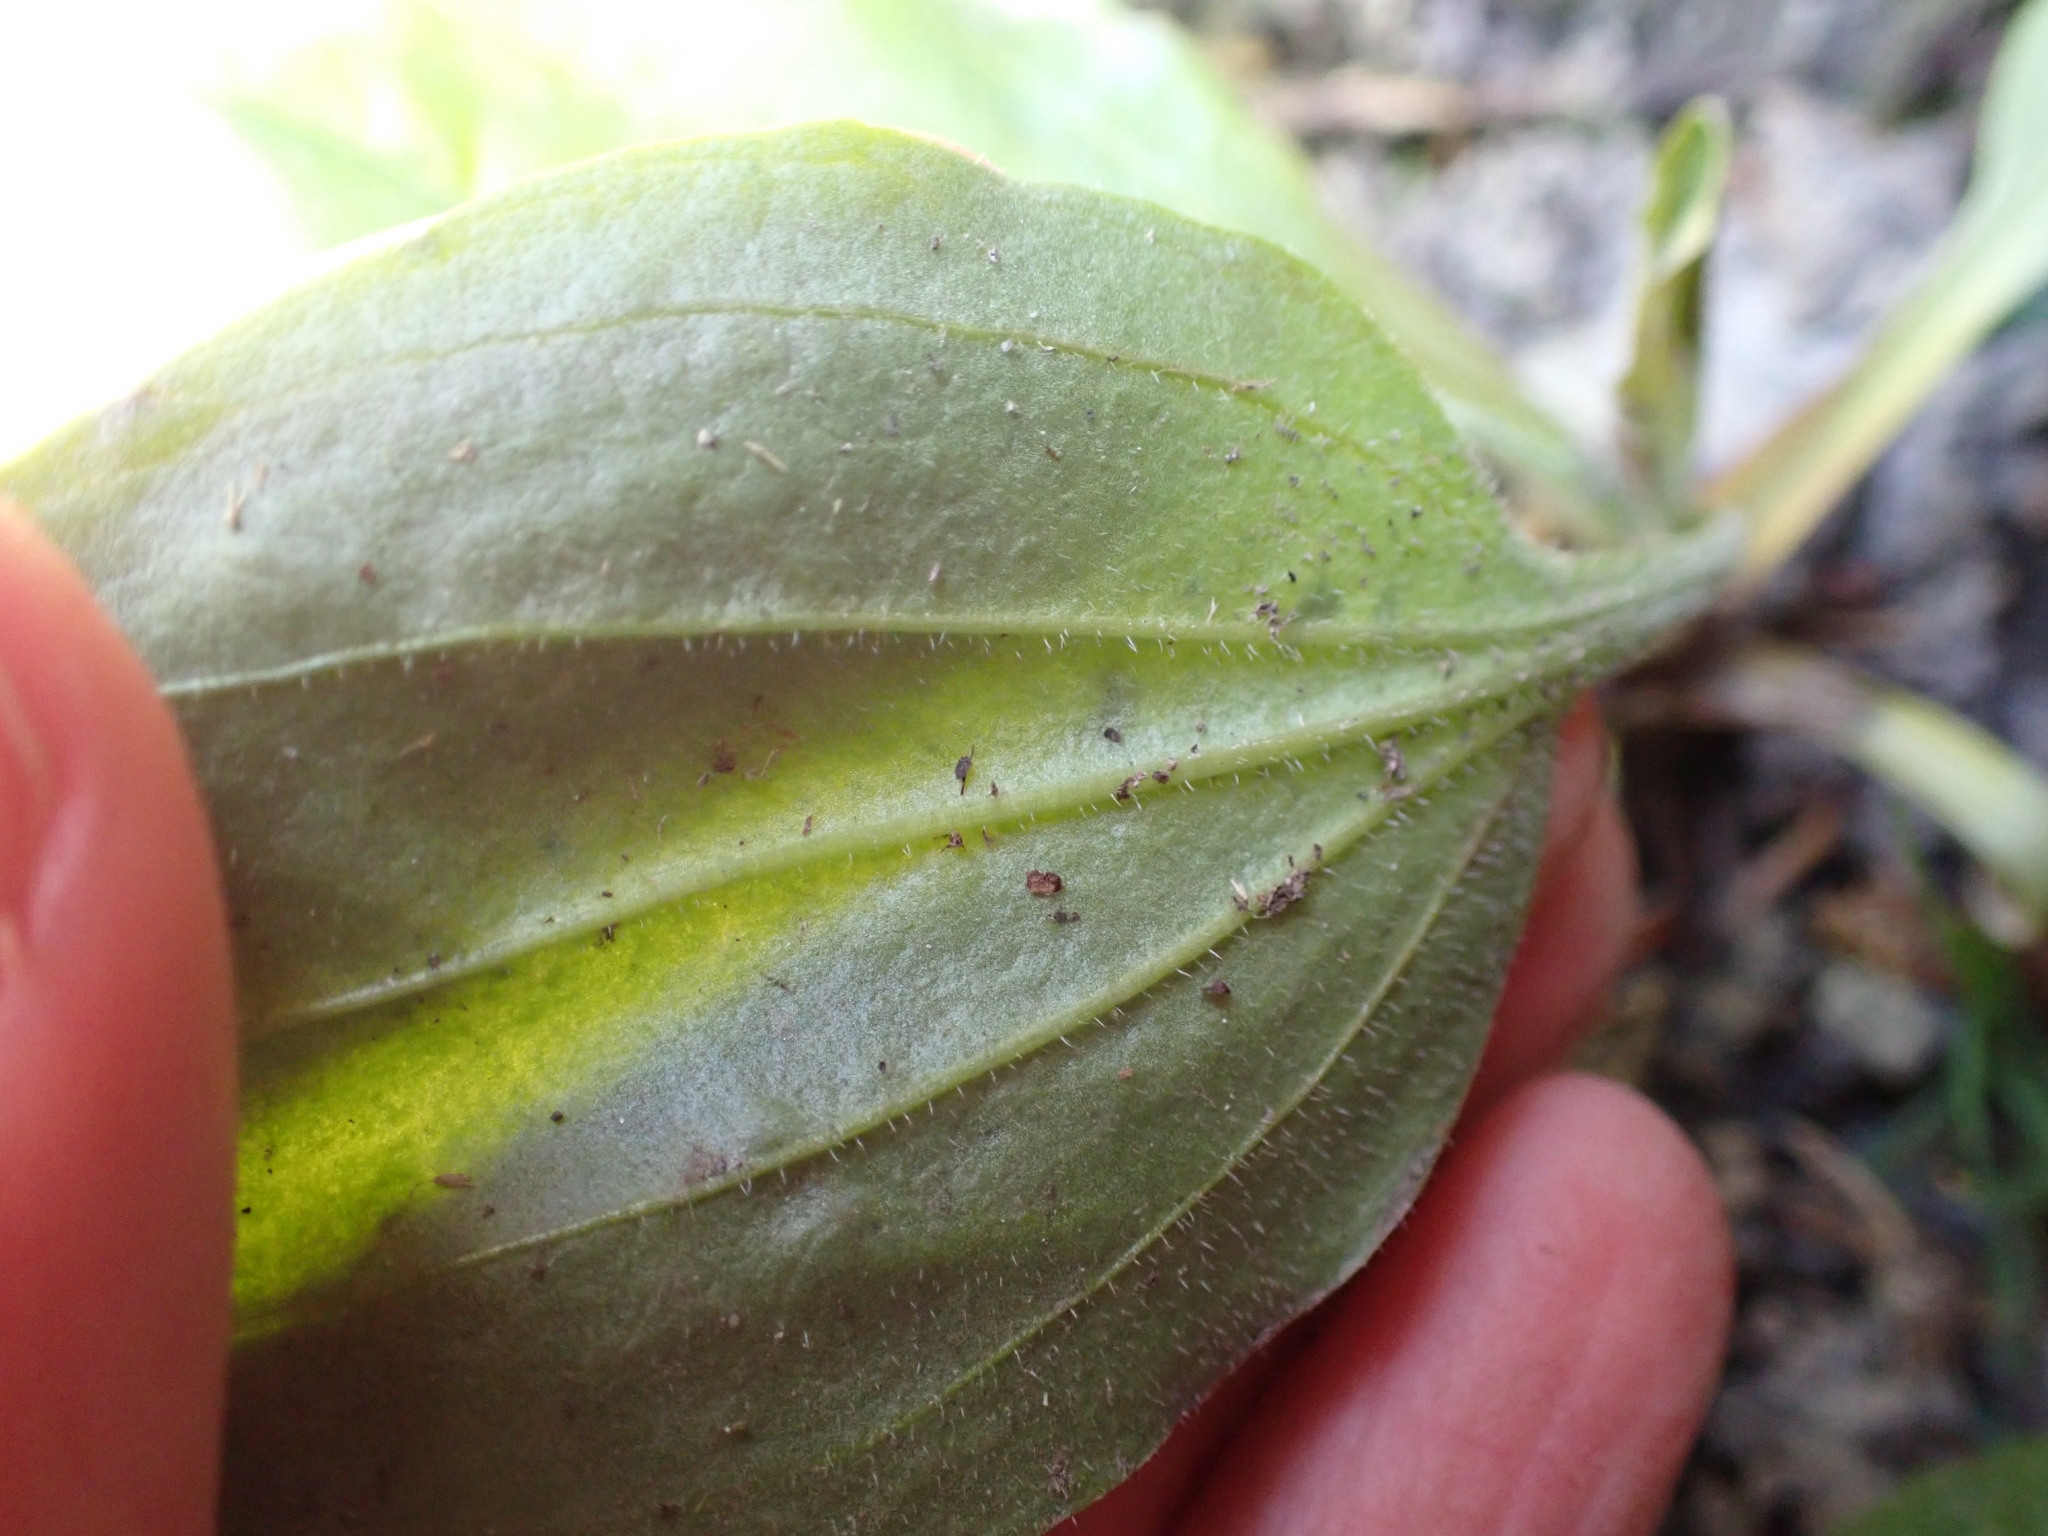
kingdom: Plantae
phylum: Tracheophyta
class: Magnoliopsida
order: Lamiales
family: Plantaginaceae
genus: Plantago
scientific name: Plantago major
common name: Common plantain
